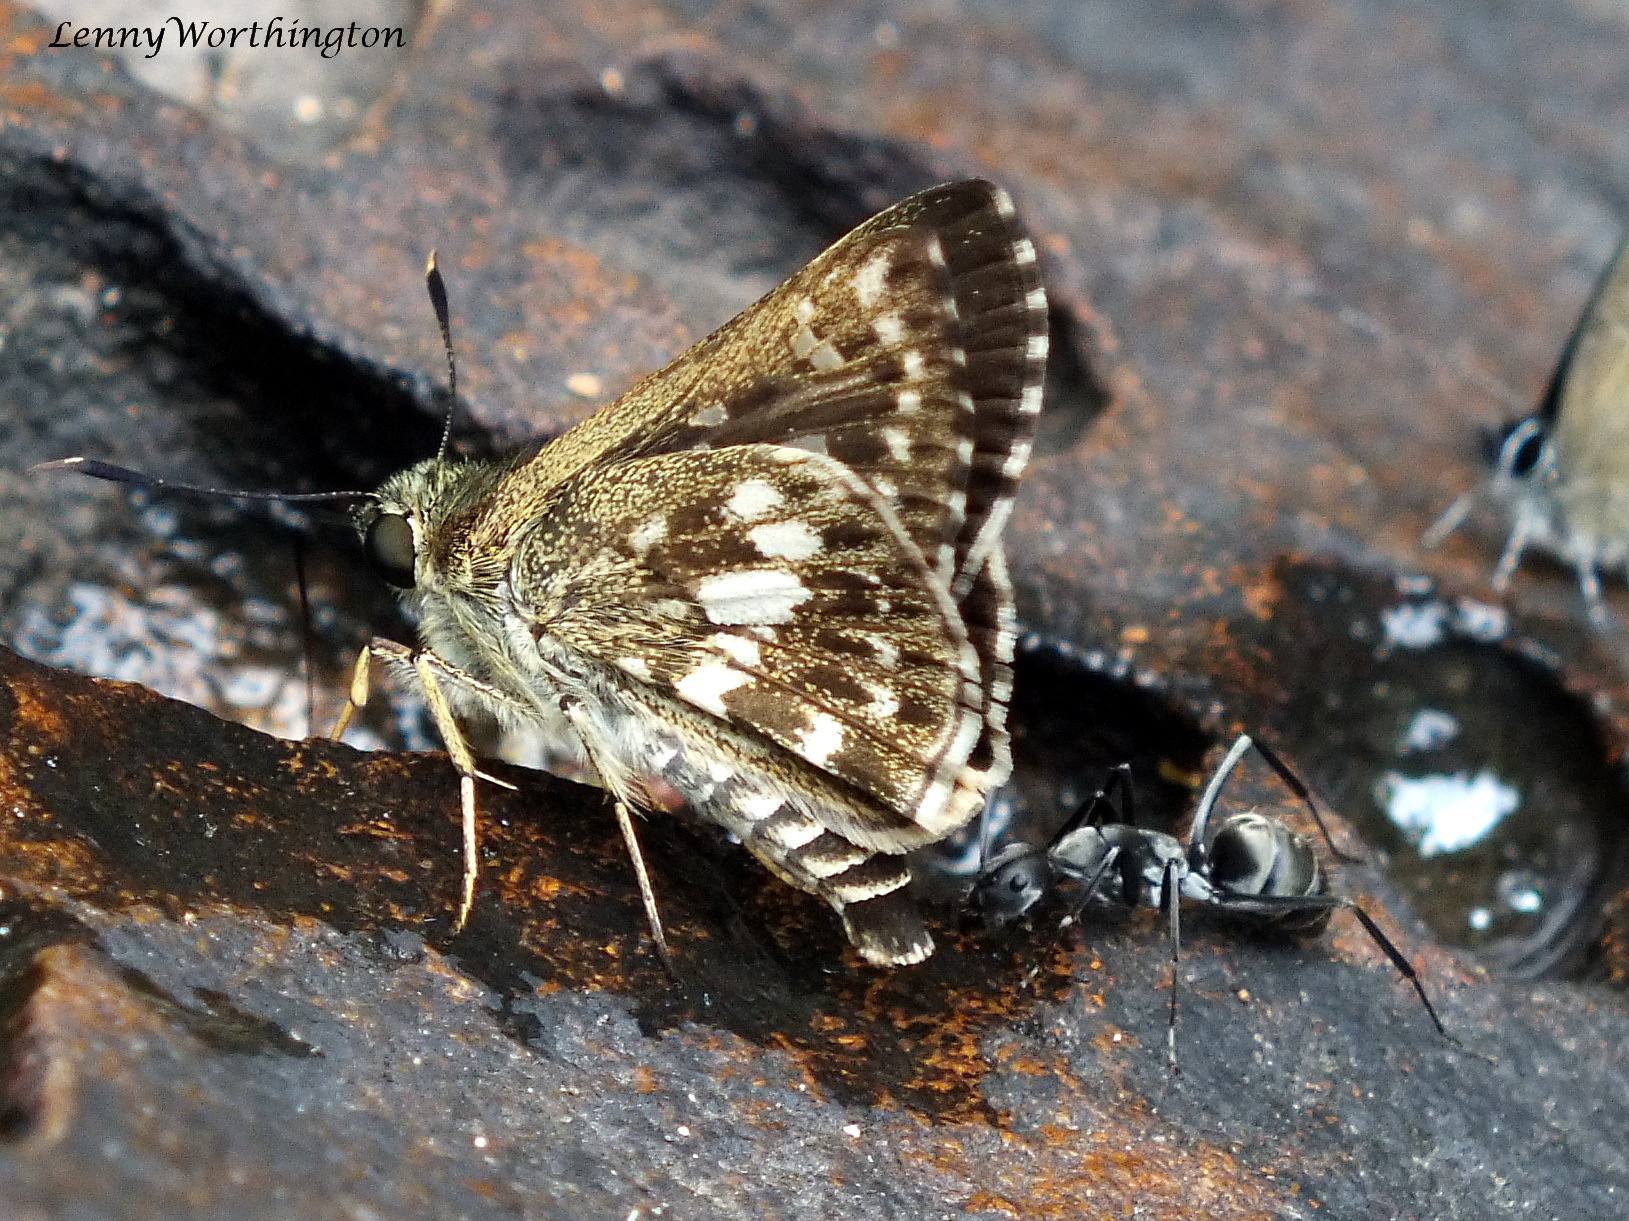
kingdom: Animalia
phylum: Arthropoda
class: Insecta
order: Lepidoptera
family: Hesperiidae
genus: Halpe
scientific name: Halpe porus
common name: Moore's ace
